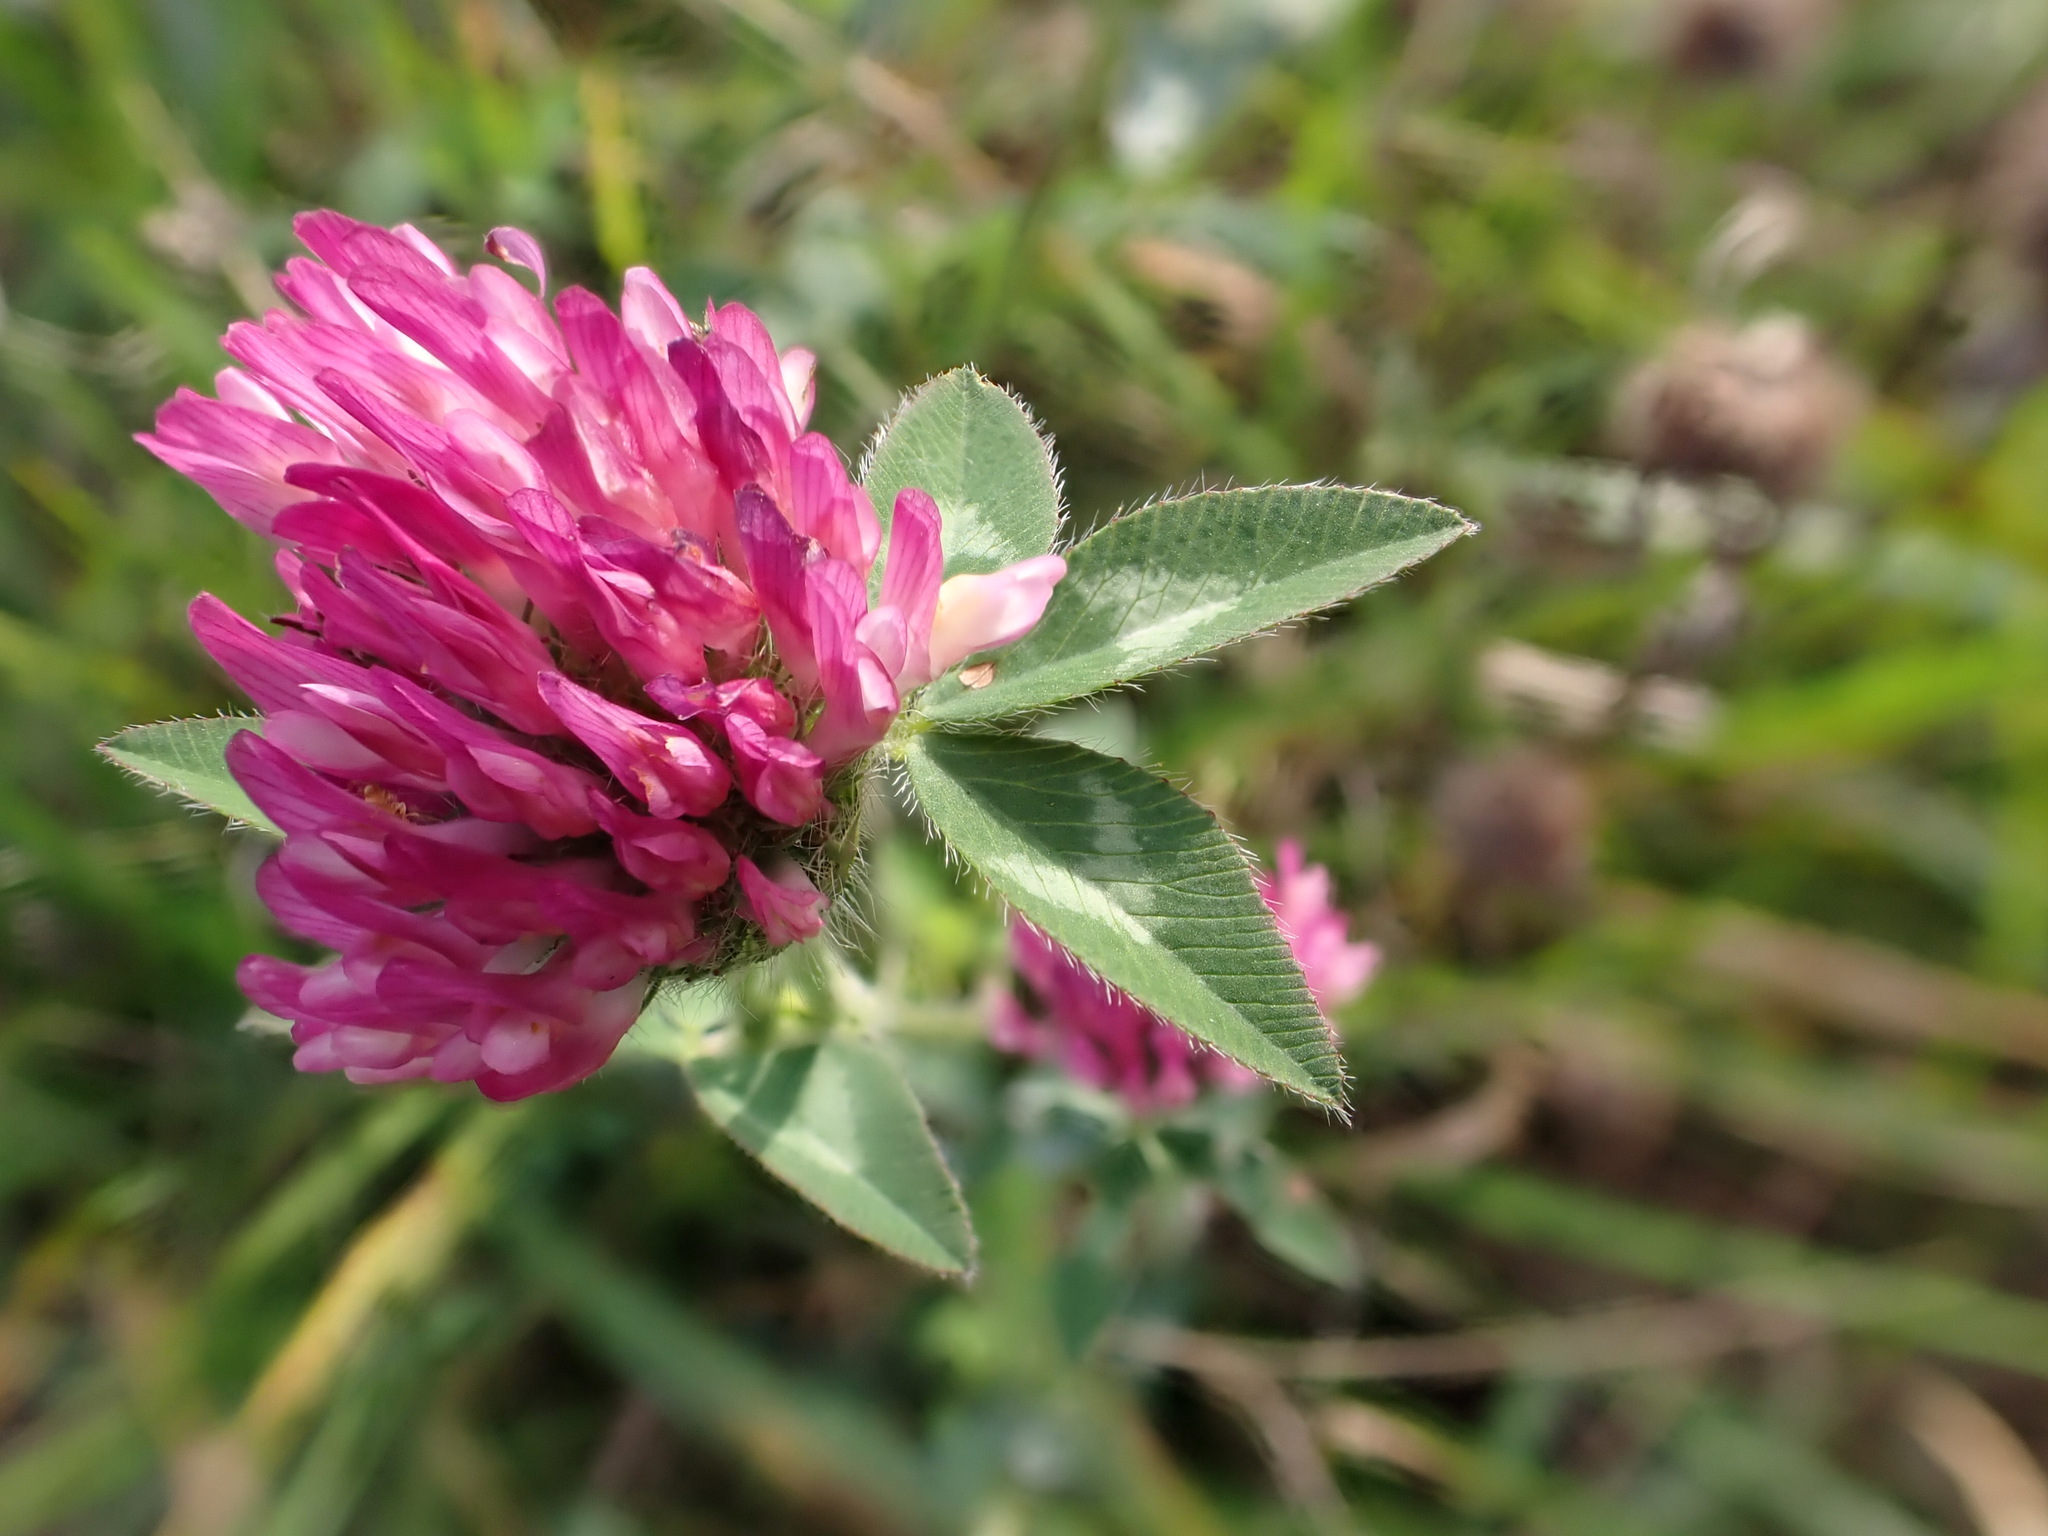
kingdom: Plantae
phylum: Tracheophyta
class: Magnoliopsida
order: Fabales
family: Fabaceae
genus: Trifolium
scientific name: Trifolium pratense
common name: Red clover
